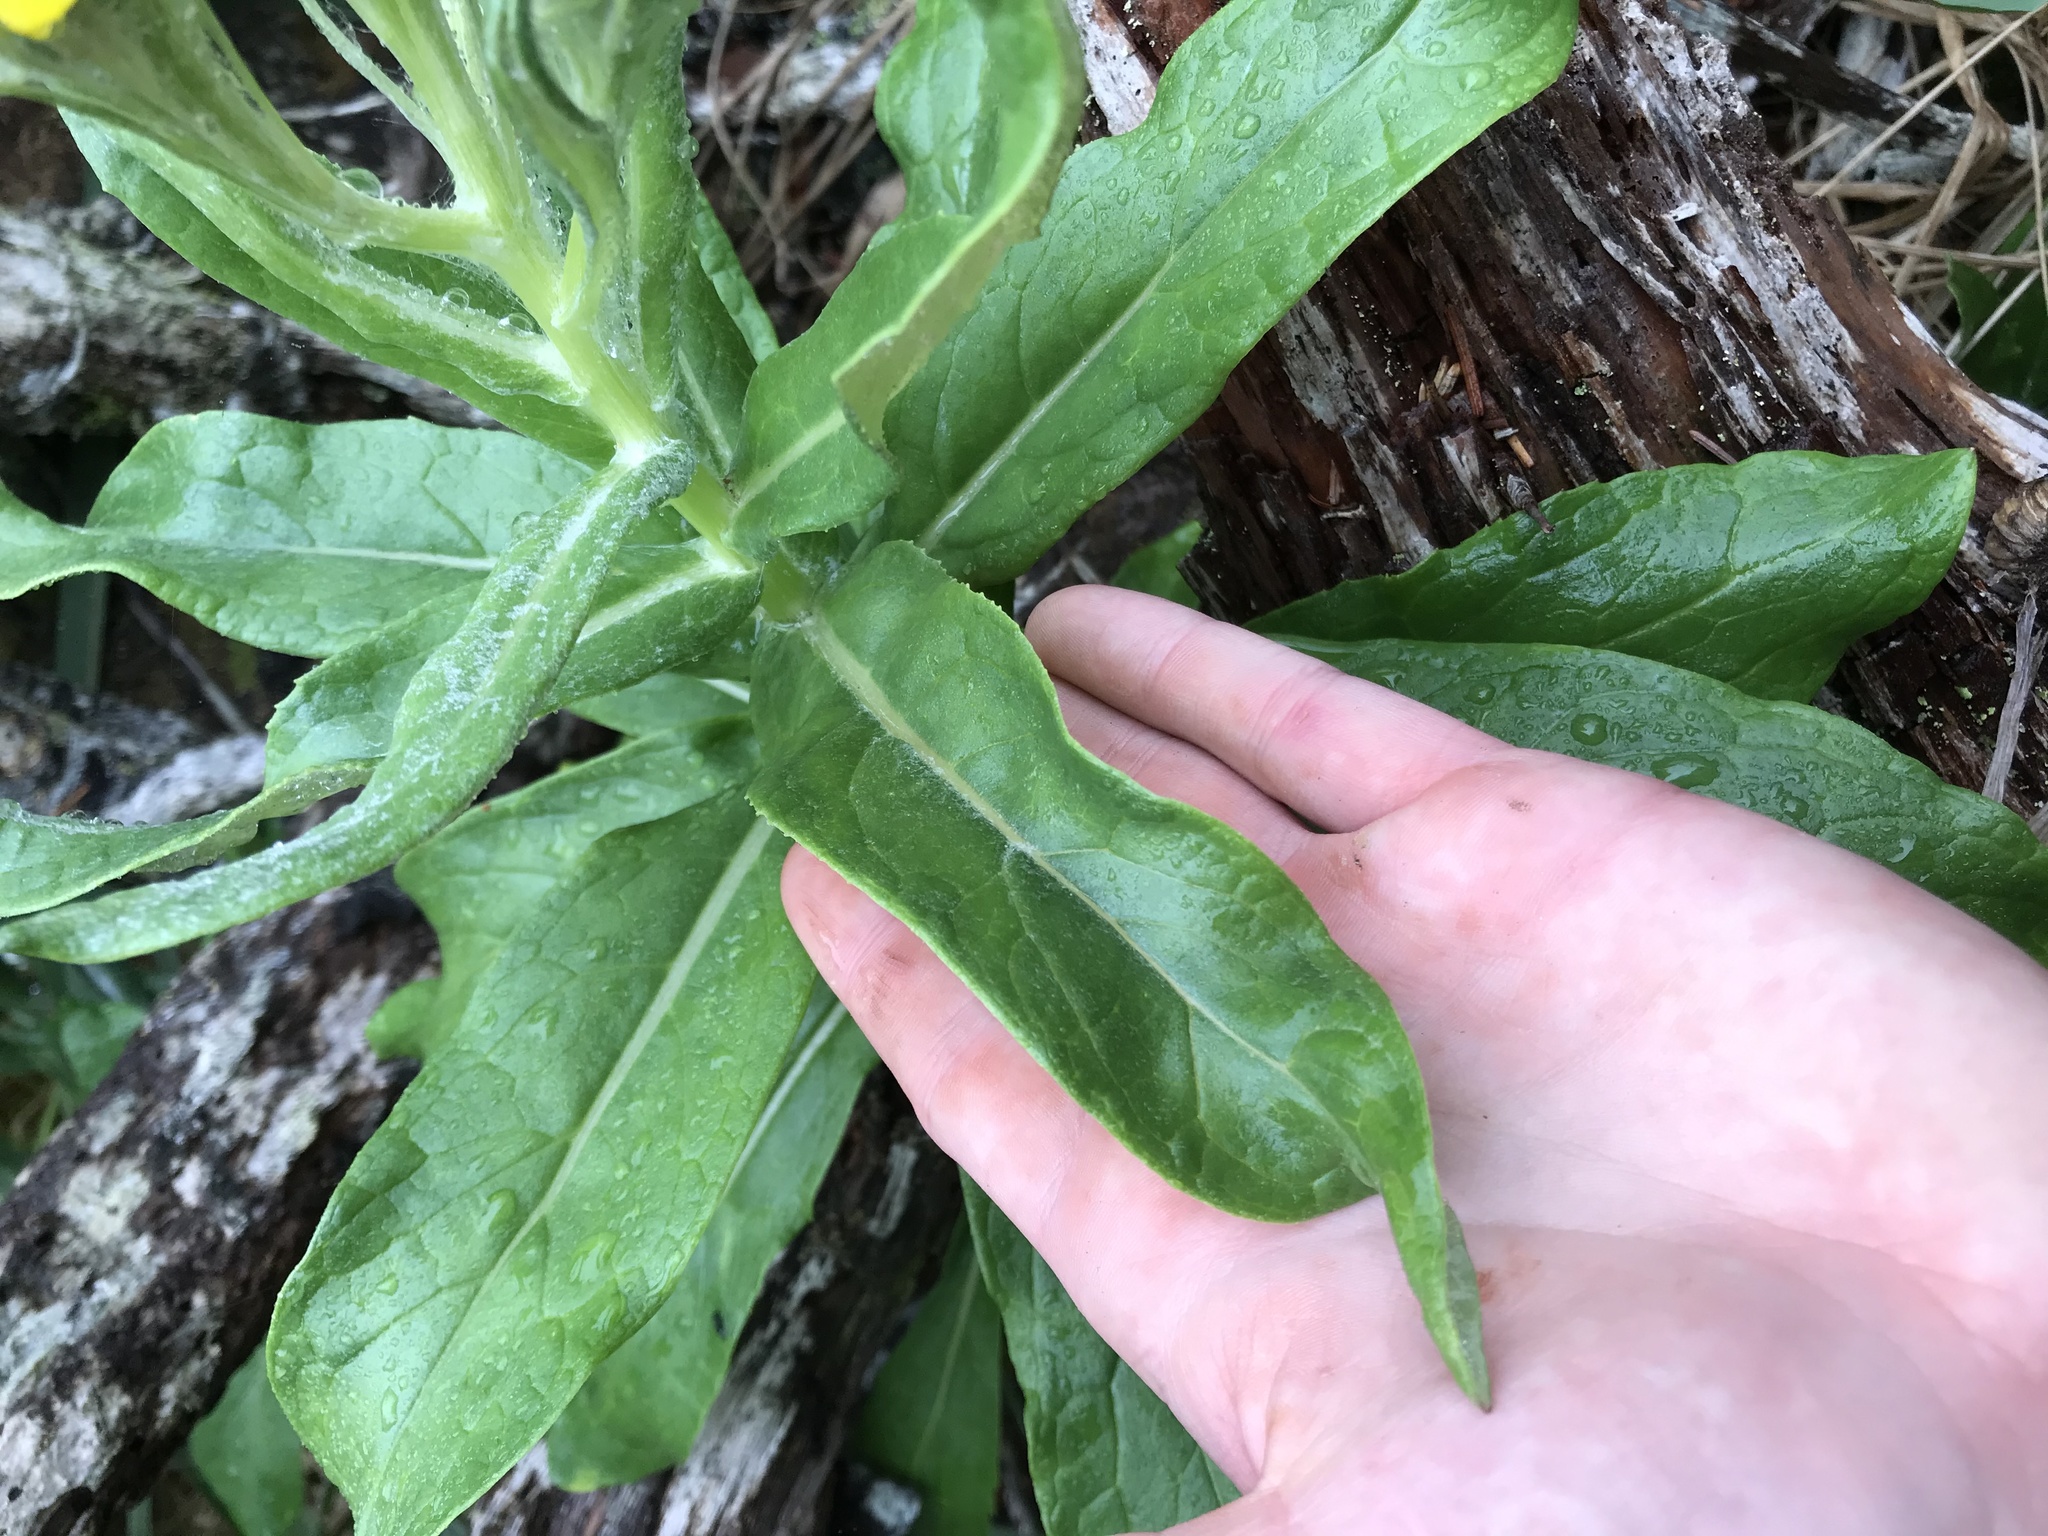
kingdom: Plantae
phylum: Tracheophyta
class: Magnoliopsida
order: Asterales
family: Asteraceae
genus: Jacobaea
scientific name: Jacobaea pseudoarnica
